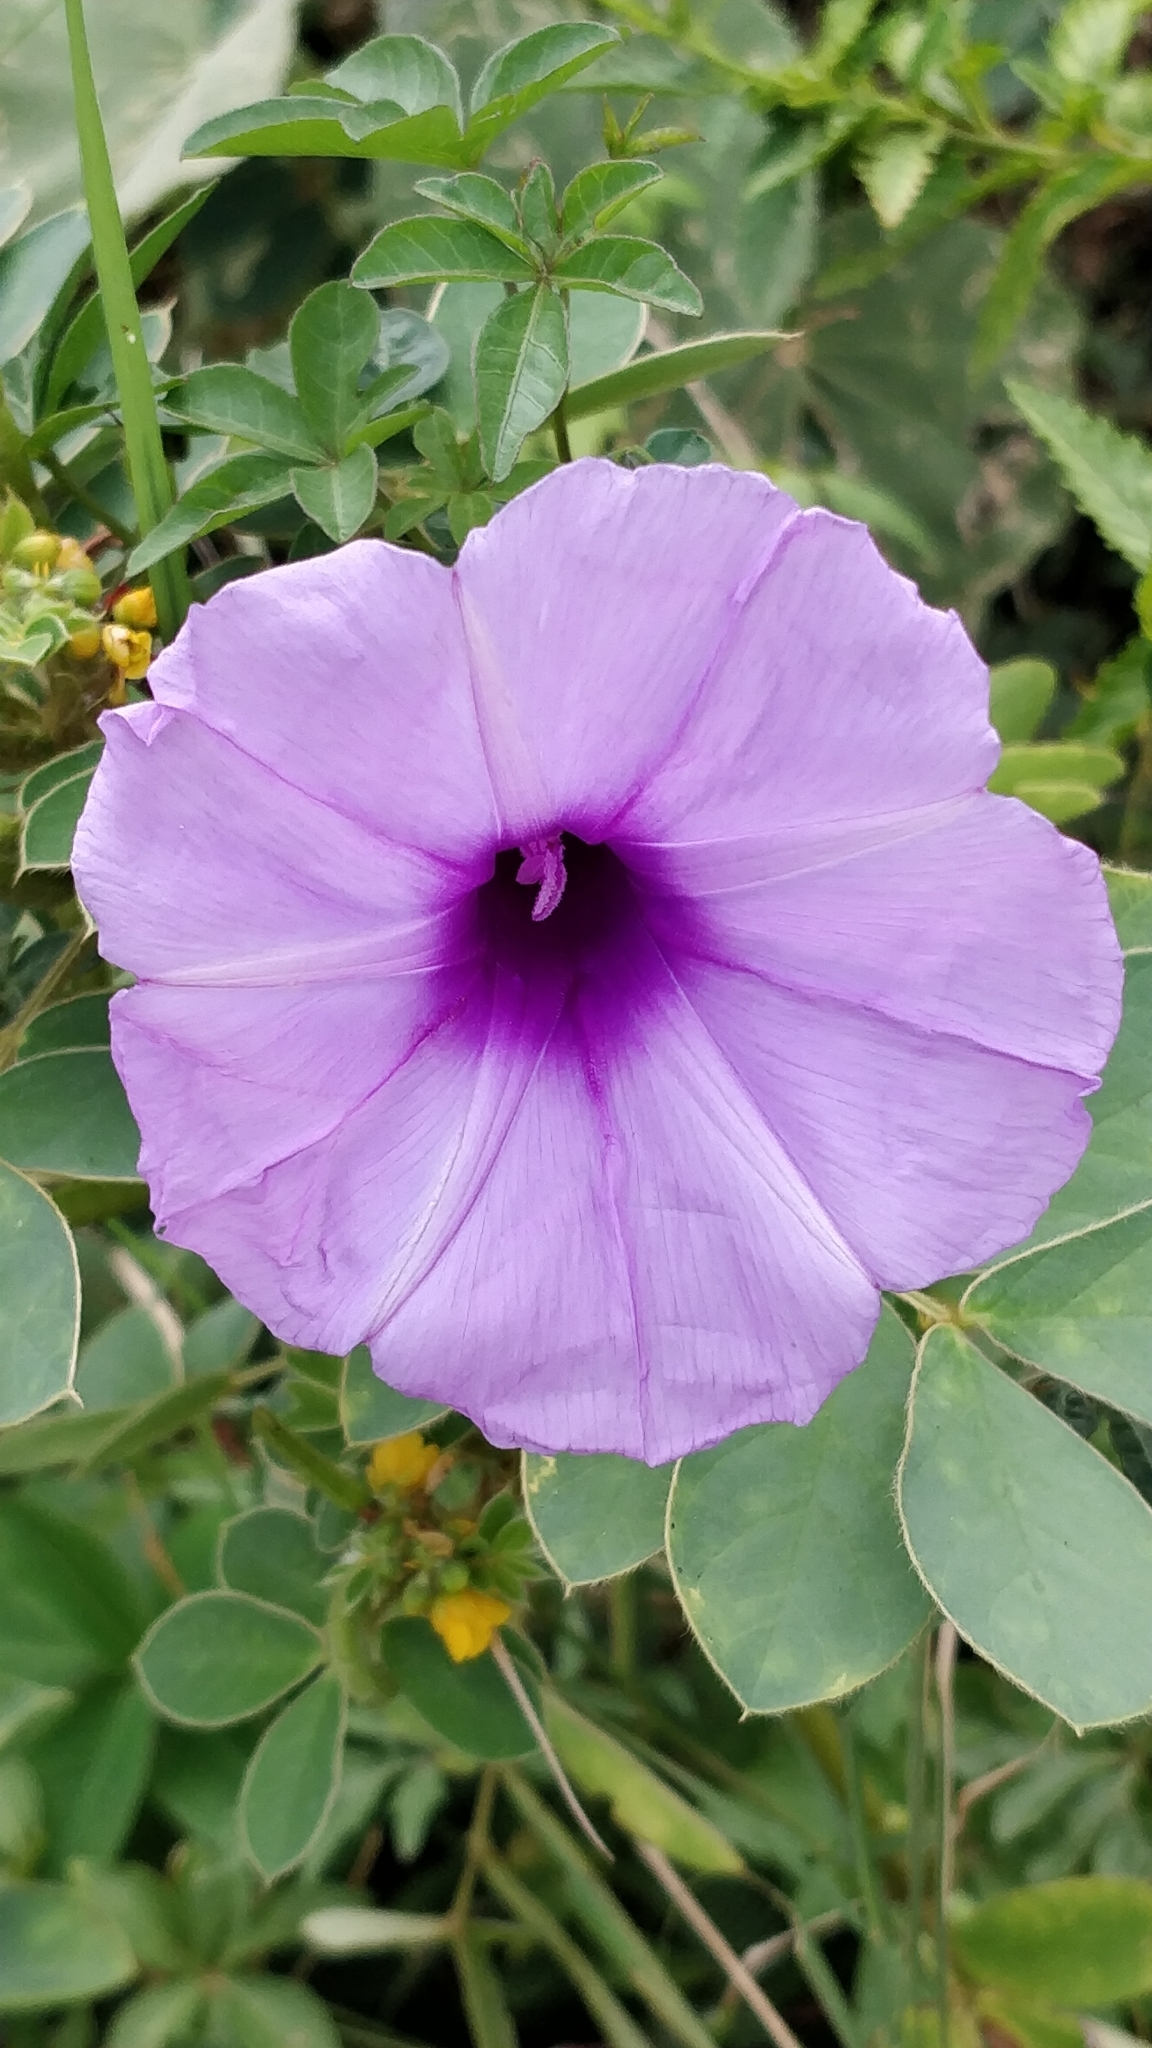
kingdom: Plantae
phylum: Tracheophyta
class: Magnoliopsida
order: Solanales
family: Convolvulaceae
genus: Ipomoea
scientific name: Ipomoea cairica
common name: Mile a minute vine
